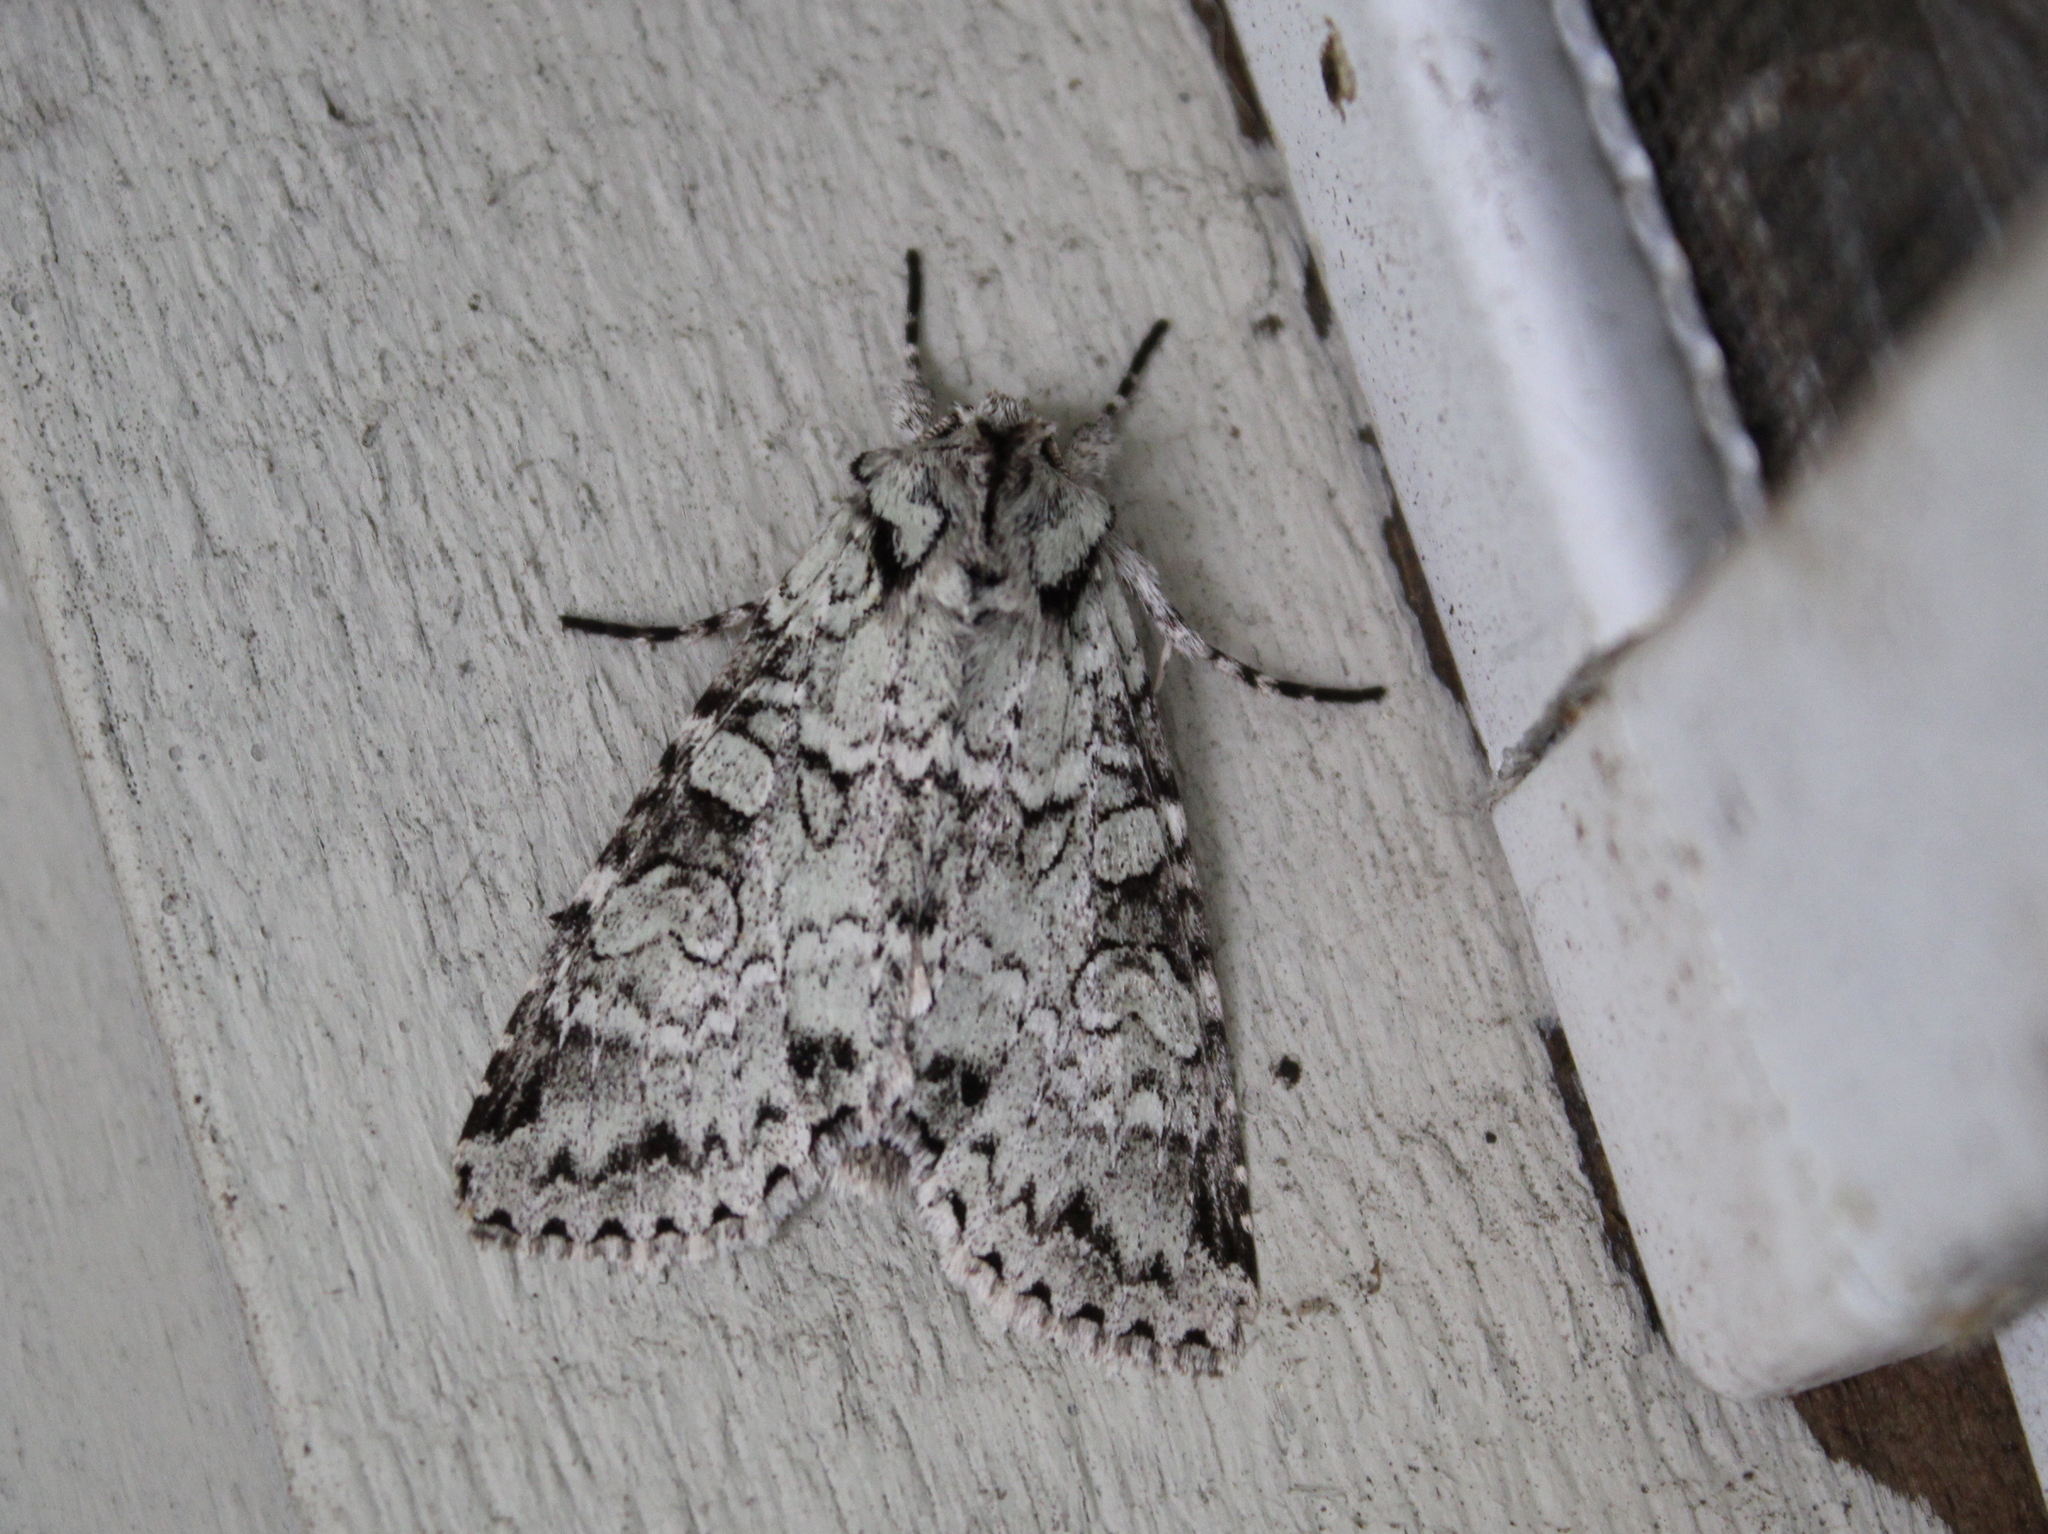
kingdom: Animalia
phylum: Arthropoda
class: Insecta
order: Lepidoptera
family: Noctuidae
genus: Polia
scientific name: Polia nimbosa
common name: Stormy arches
